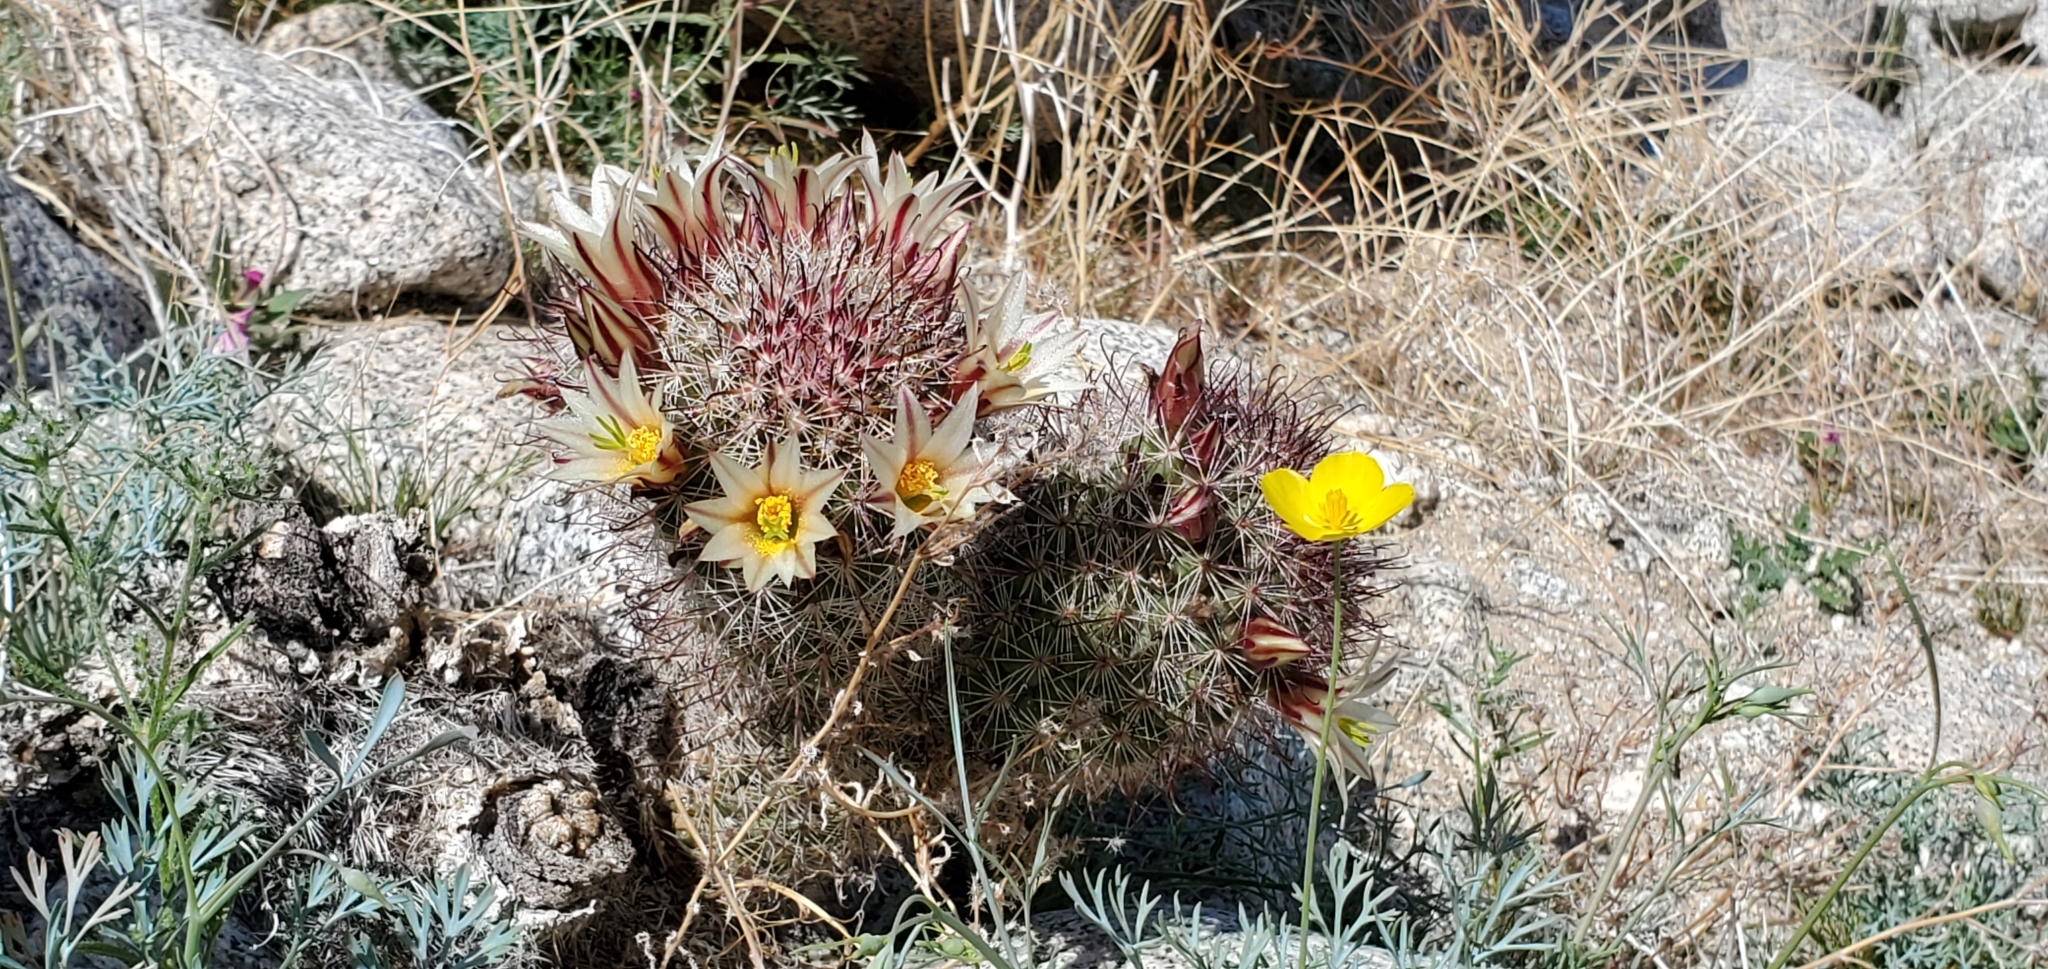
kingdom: Plantae
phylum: Tracheophyta
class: Magnoliopsida
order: Caryophyllales
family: Cactaceae
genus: Cochemiea
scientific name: Cochemiea dioica
